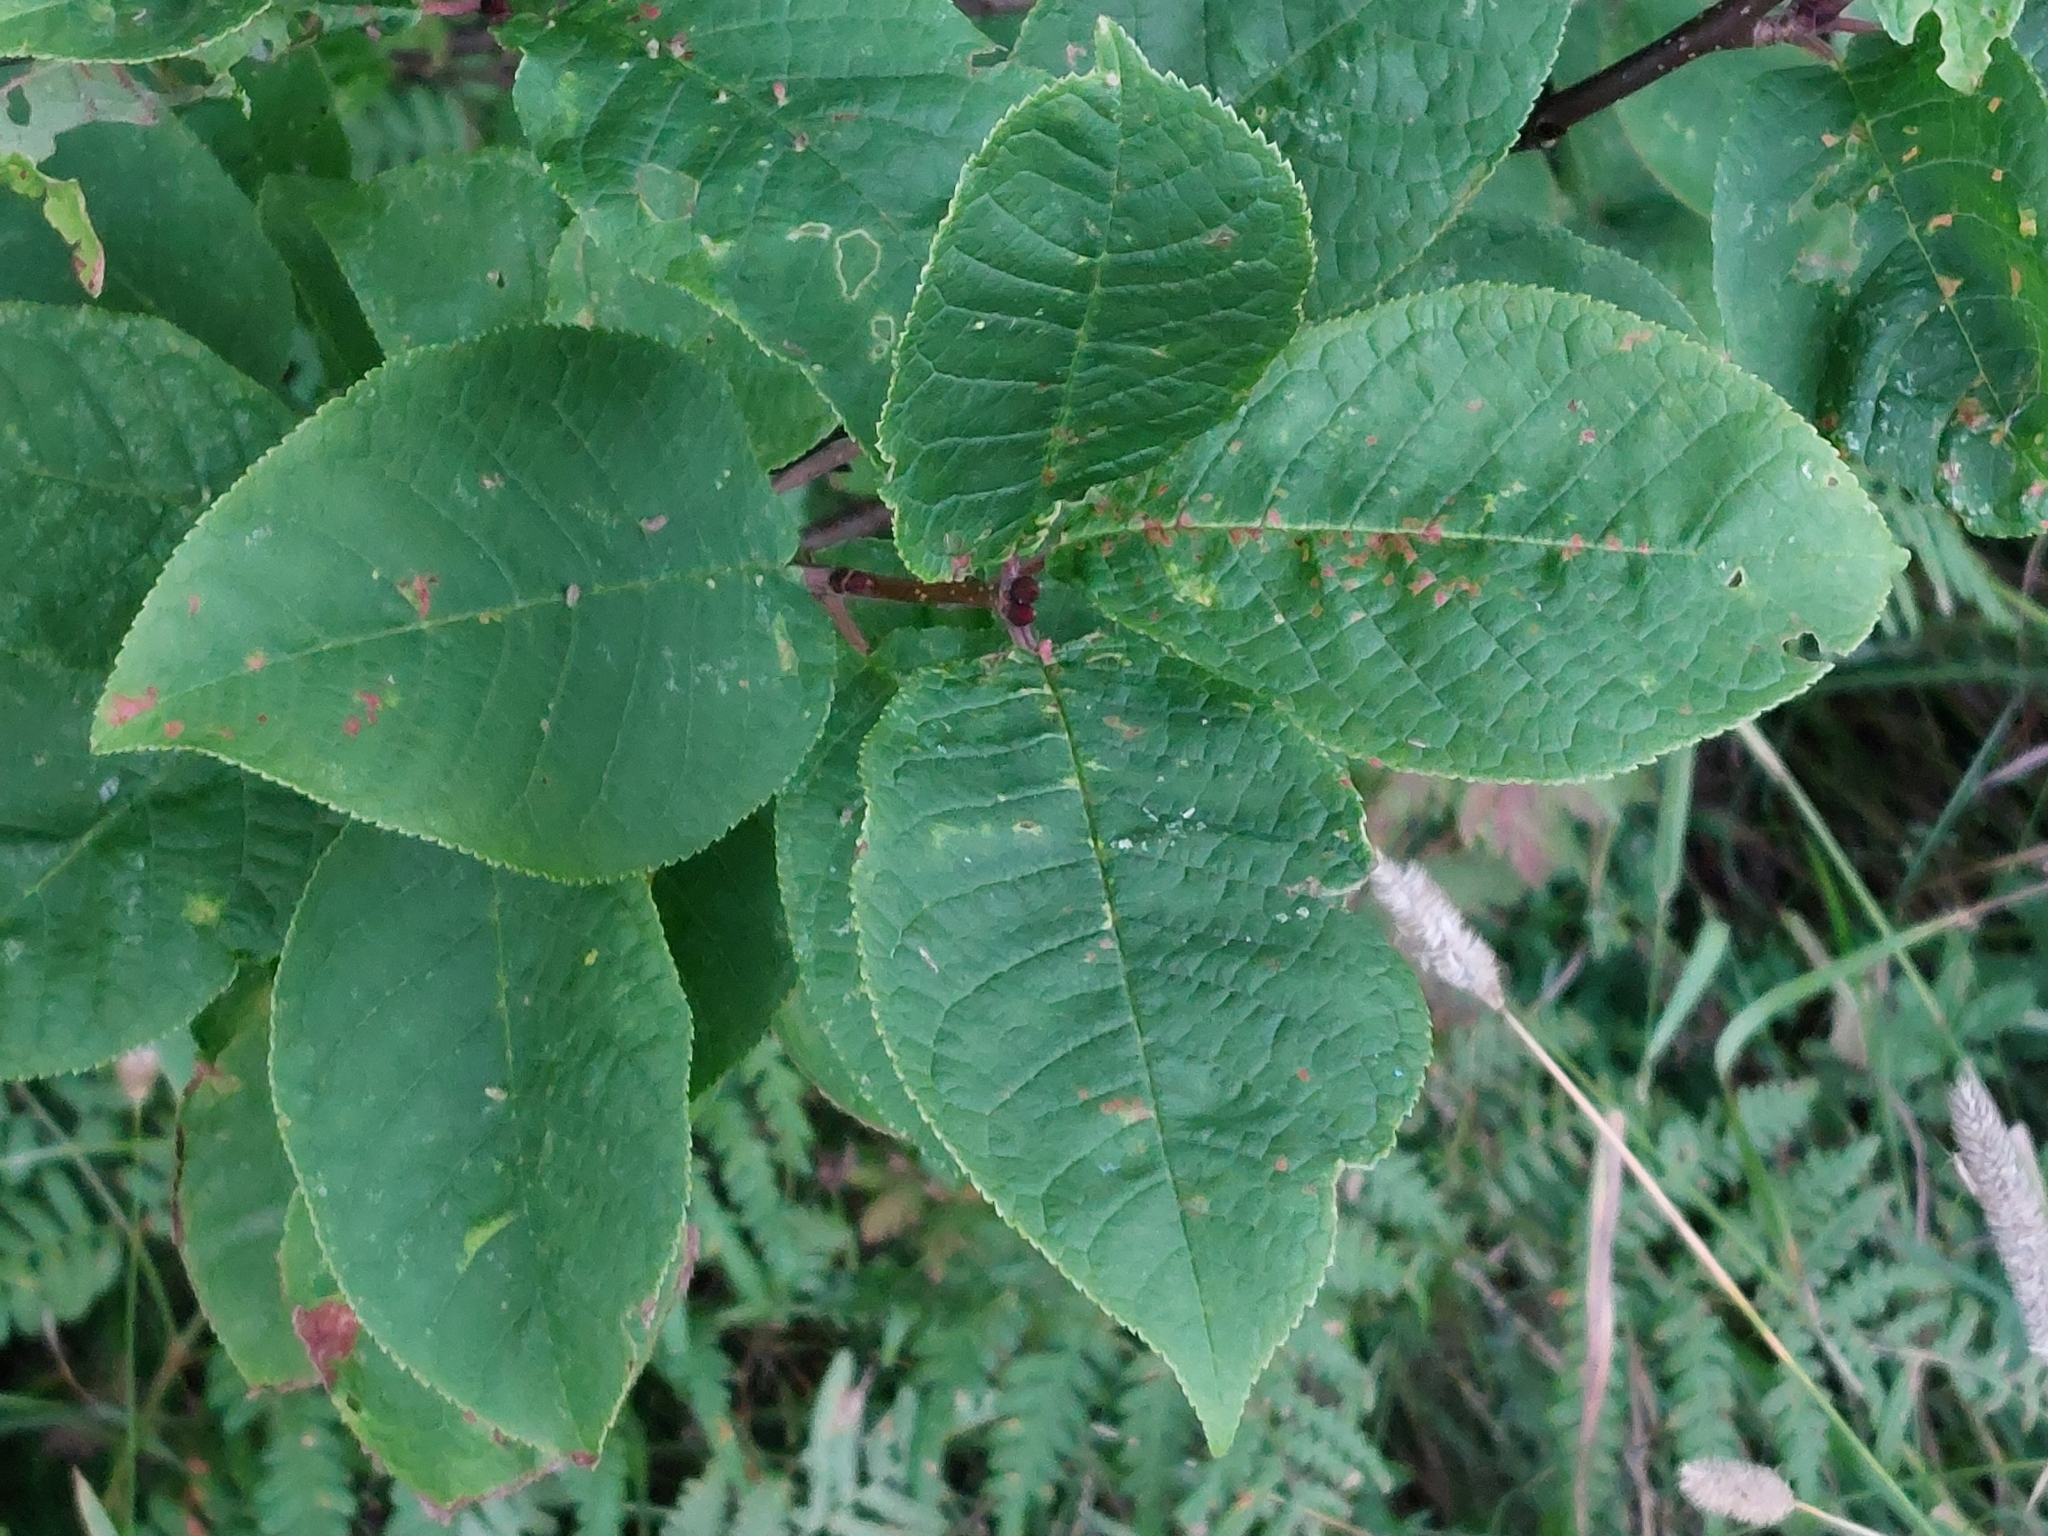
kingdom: Plantae
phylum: Tracheophyta
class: Magnoliopsida
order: Rosales
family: Rosaceae
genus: Prunus
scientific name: Prunus padus
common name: Bird cherry
